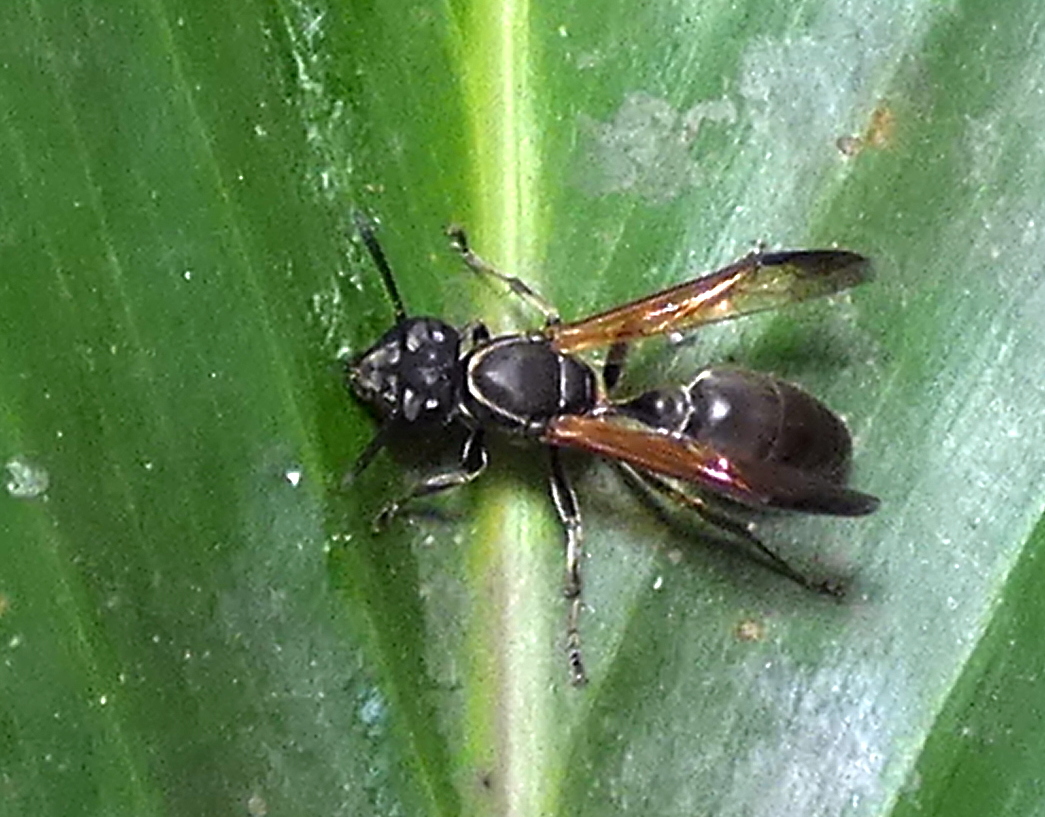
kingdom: Animalia
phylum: Arthropoda
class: Insecta
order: Hymenoptera
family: Eumenidae
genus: Polybia
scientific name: Polybia rejecta
